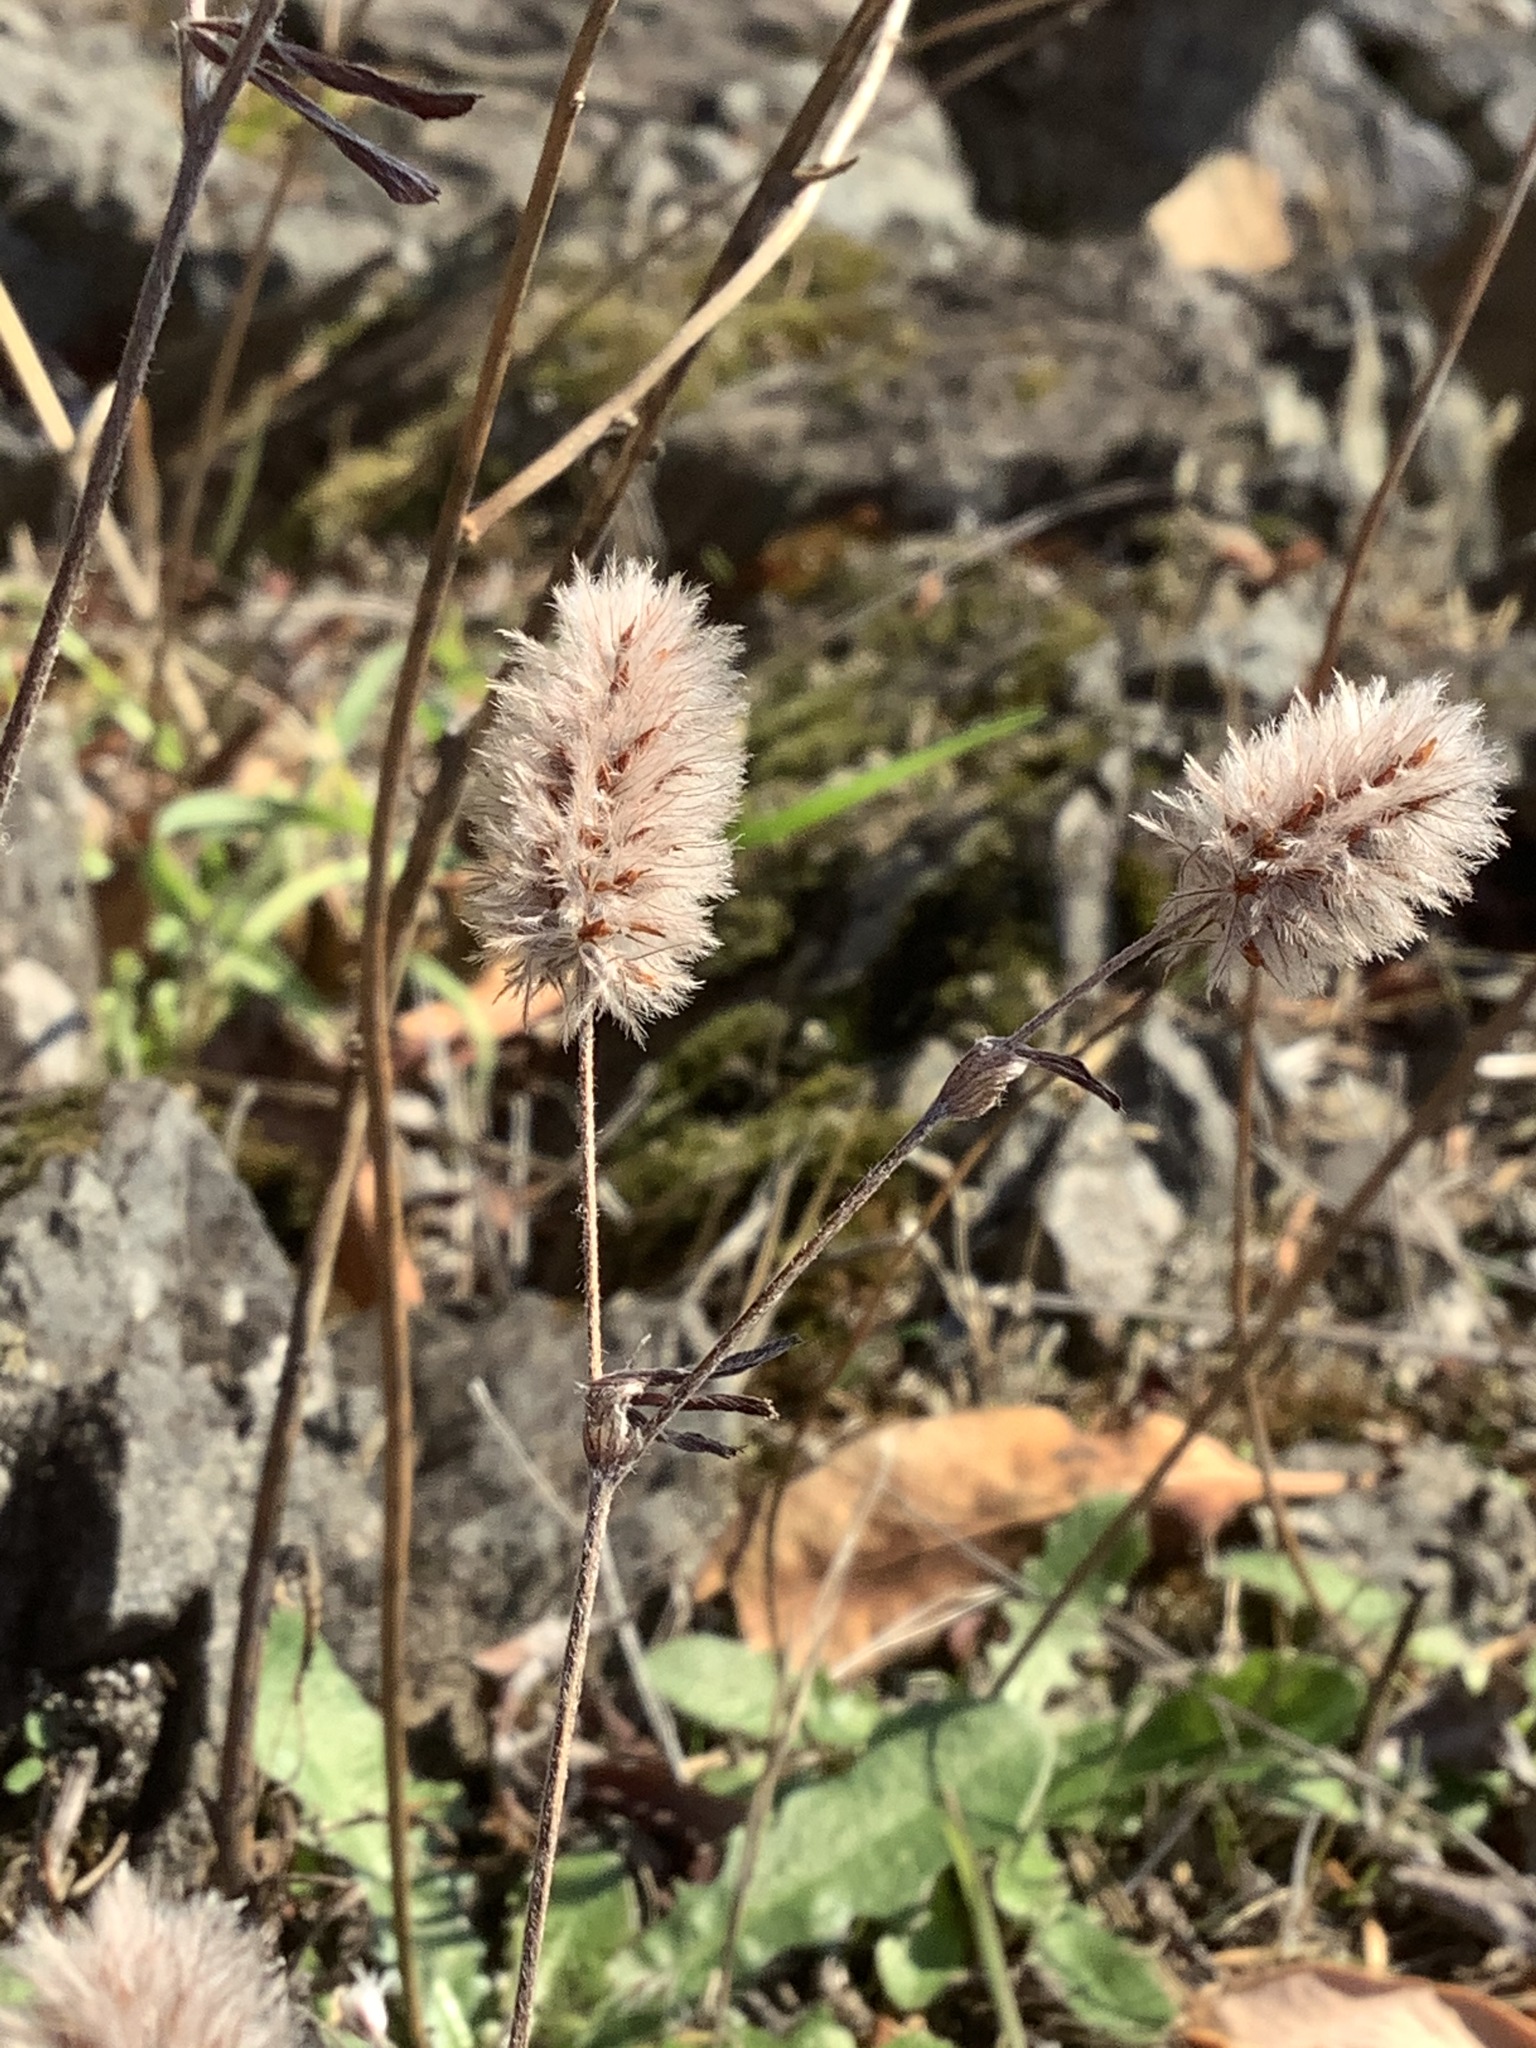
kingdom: Plantae
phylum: Tracheophyta
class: Magnoliopsida
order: Fabales
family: Fabaceae
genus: Trifolium
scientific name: Trifolium arvense
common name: Hare's-foot clover
